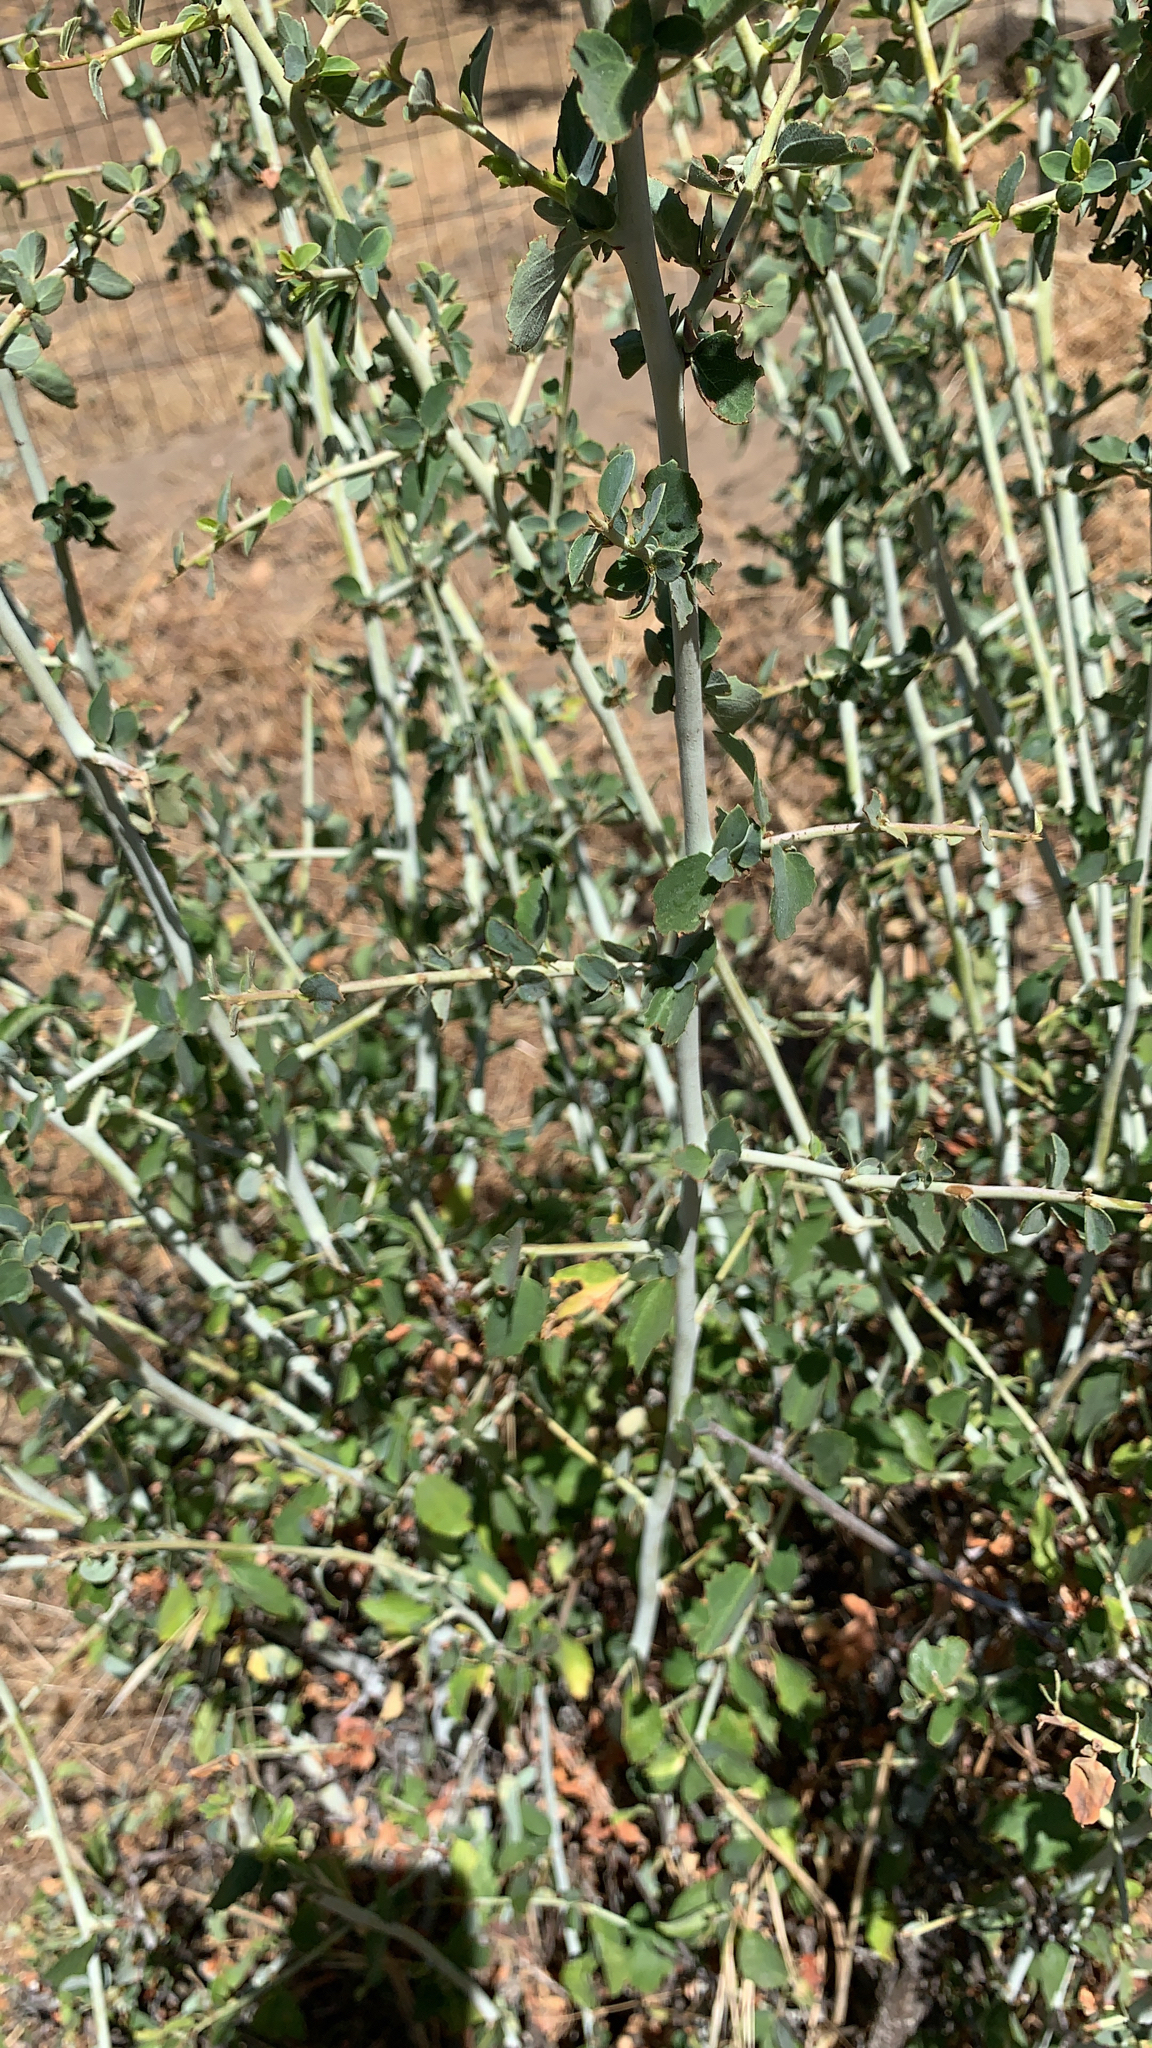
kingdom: Plantae
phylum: Tracheophyta
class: Magnoliopsida
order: Rosales
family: Rhamnaceae
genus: Ceanothus
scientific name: Ceanothus leucodermis
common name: Chaparral whitethorn
